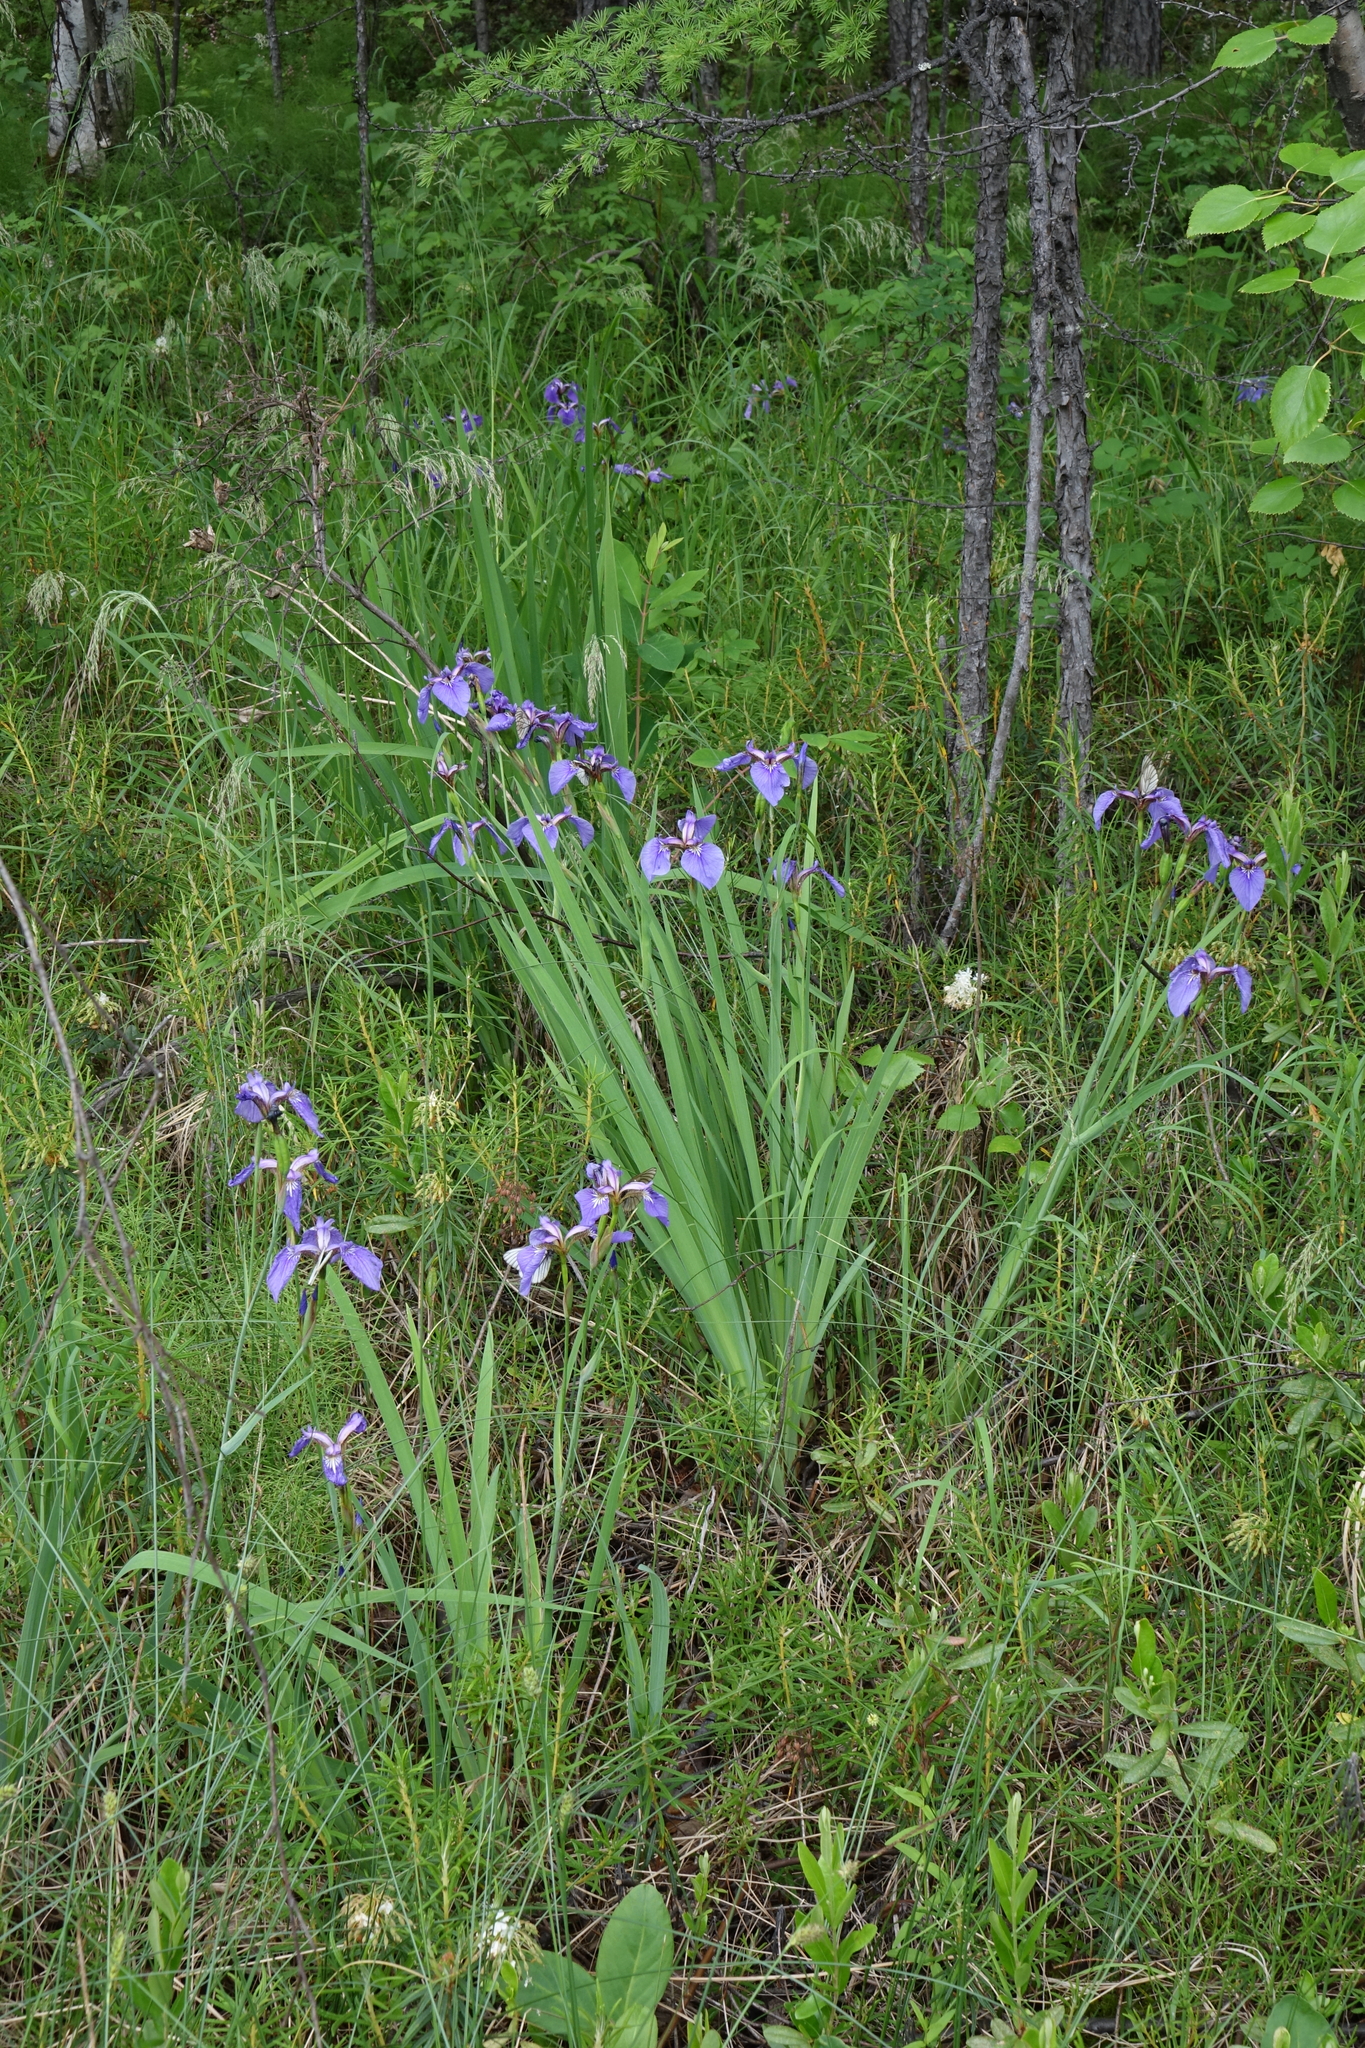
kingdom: Plantae
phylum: Tracheophyta
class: Liliopsida
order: Asparagales
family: Iridaceae
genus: Iris
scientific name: Iris setosa
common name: Arctic blue flag
